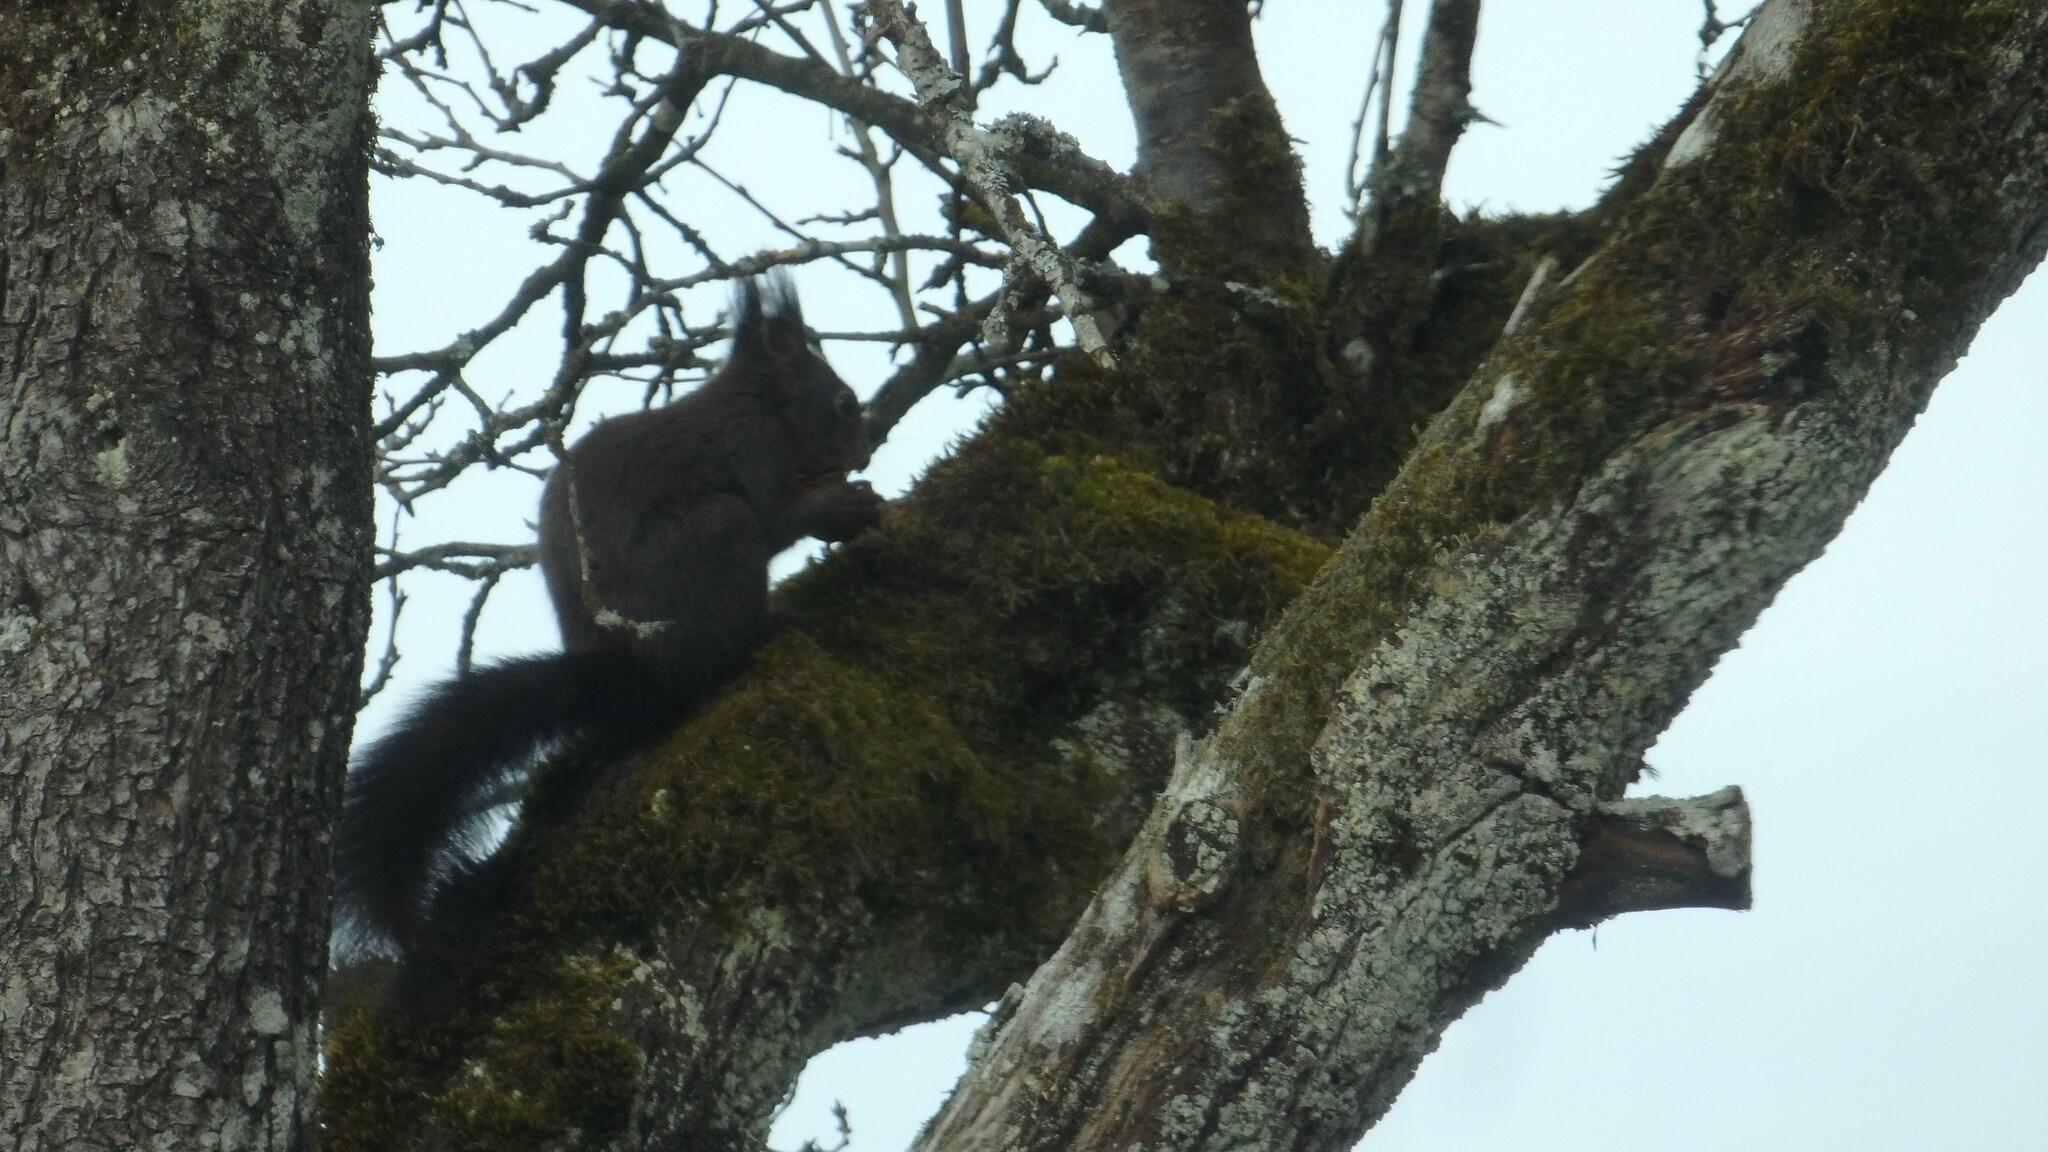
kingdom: Animalia
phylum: Chordata
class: Mammalia
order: Rodentia
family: Sciuridae
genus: Sciurus
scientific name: Sciurus vulgaris
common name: Eurasian red squirrel
